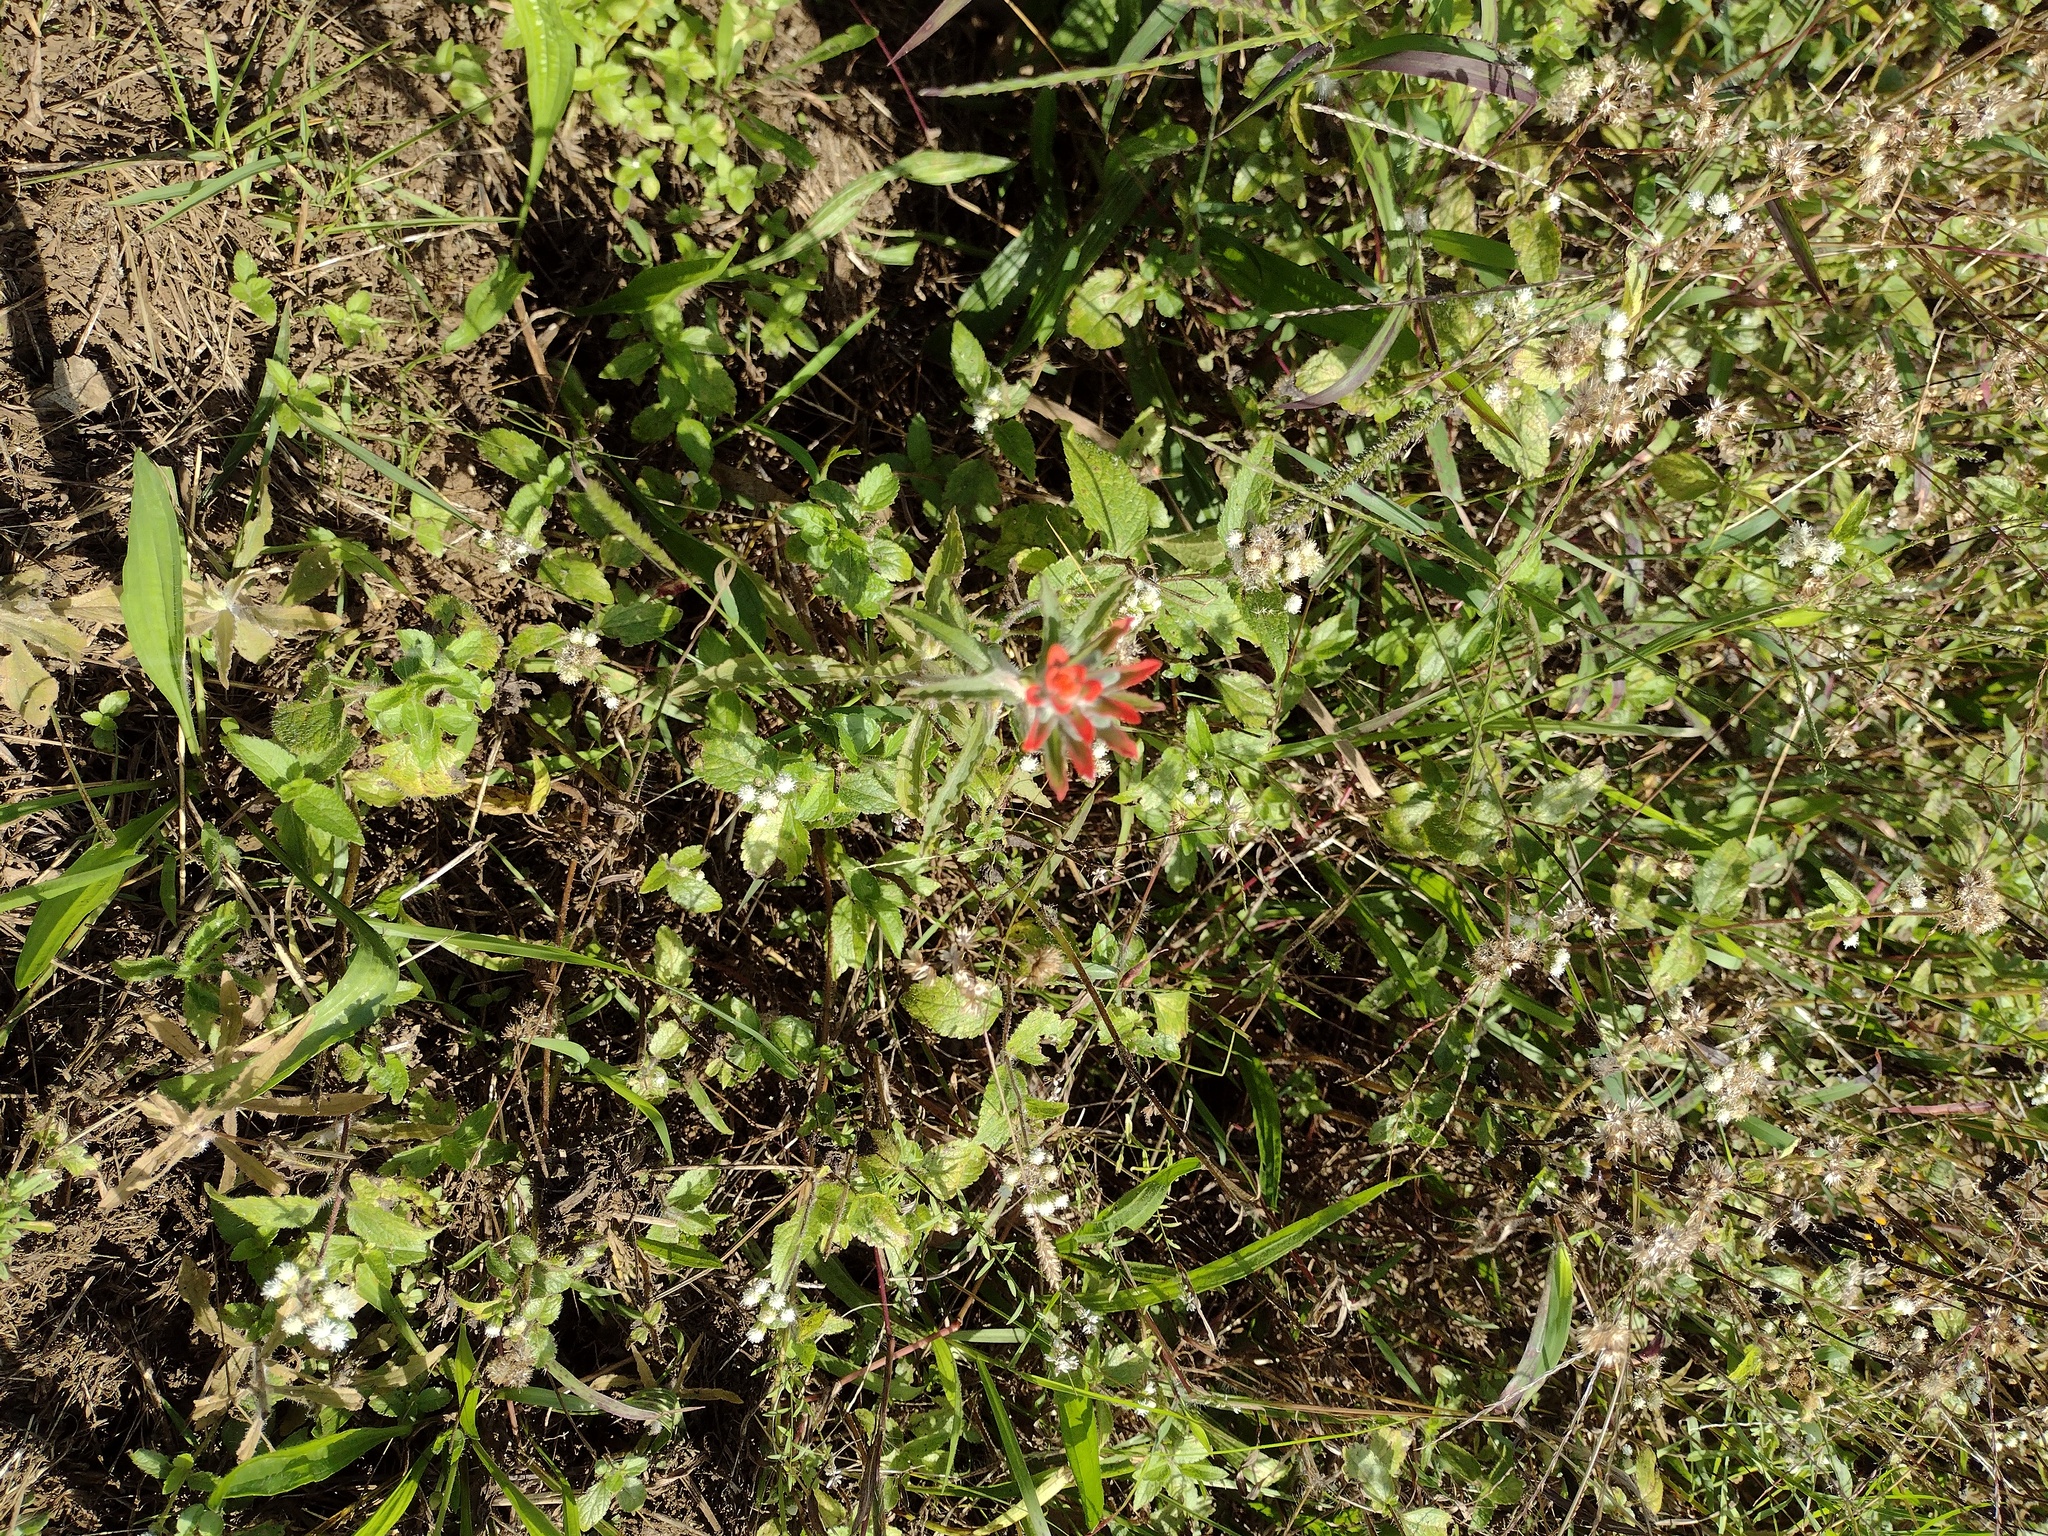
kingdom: Plantae
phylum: Tracheophyta
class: Magnoliopsida
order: Lamiales
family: Orobanchaceae
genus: Castilleja
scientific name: Castilleja arvensis
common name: Indian paintbrush
